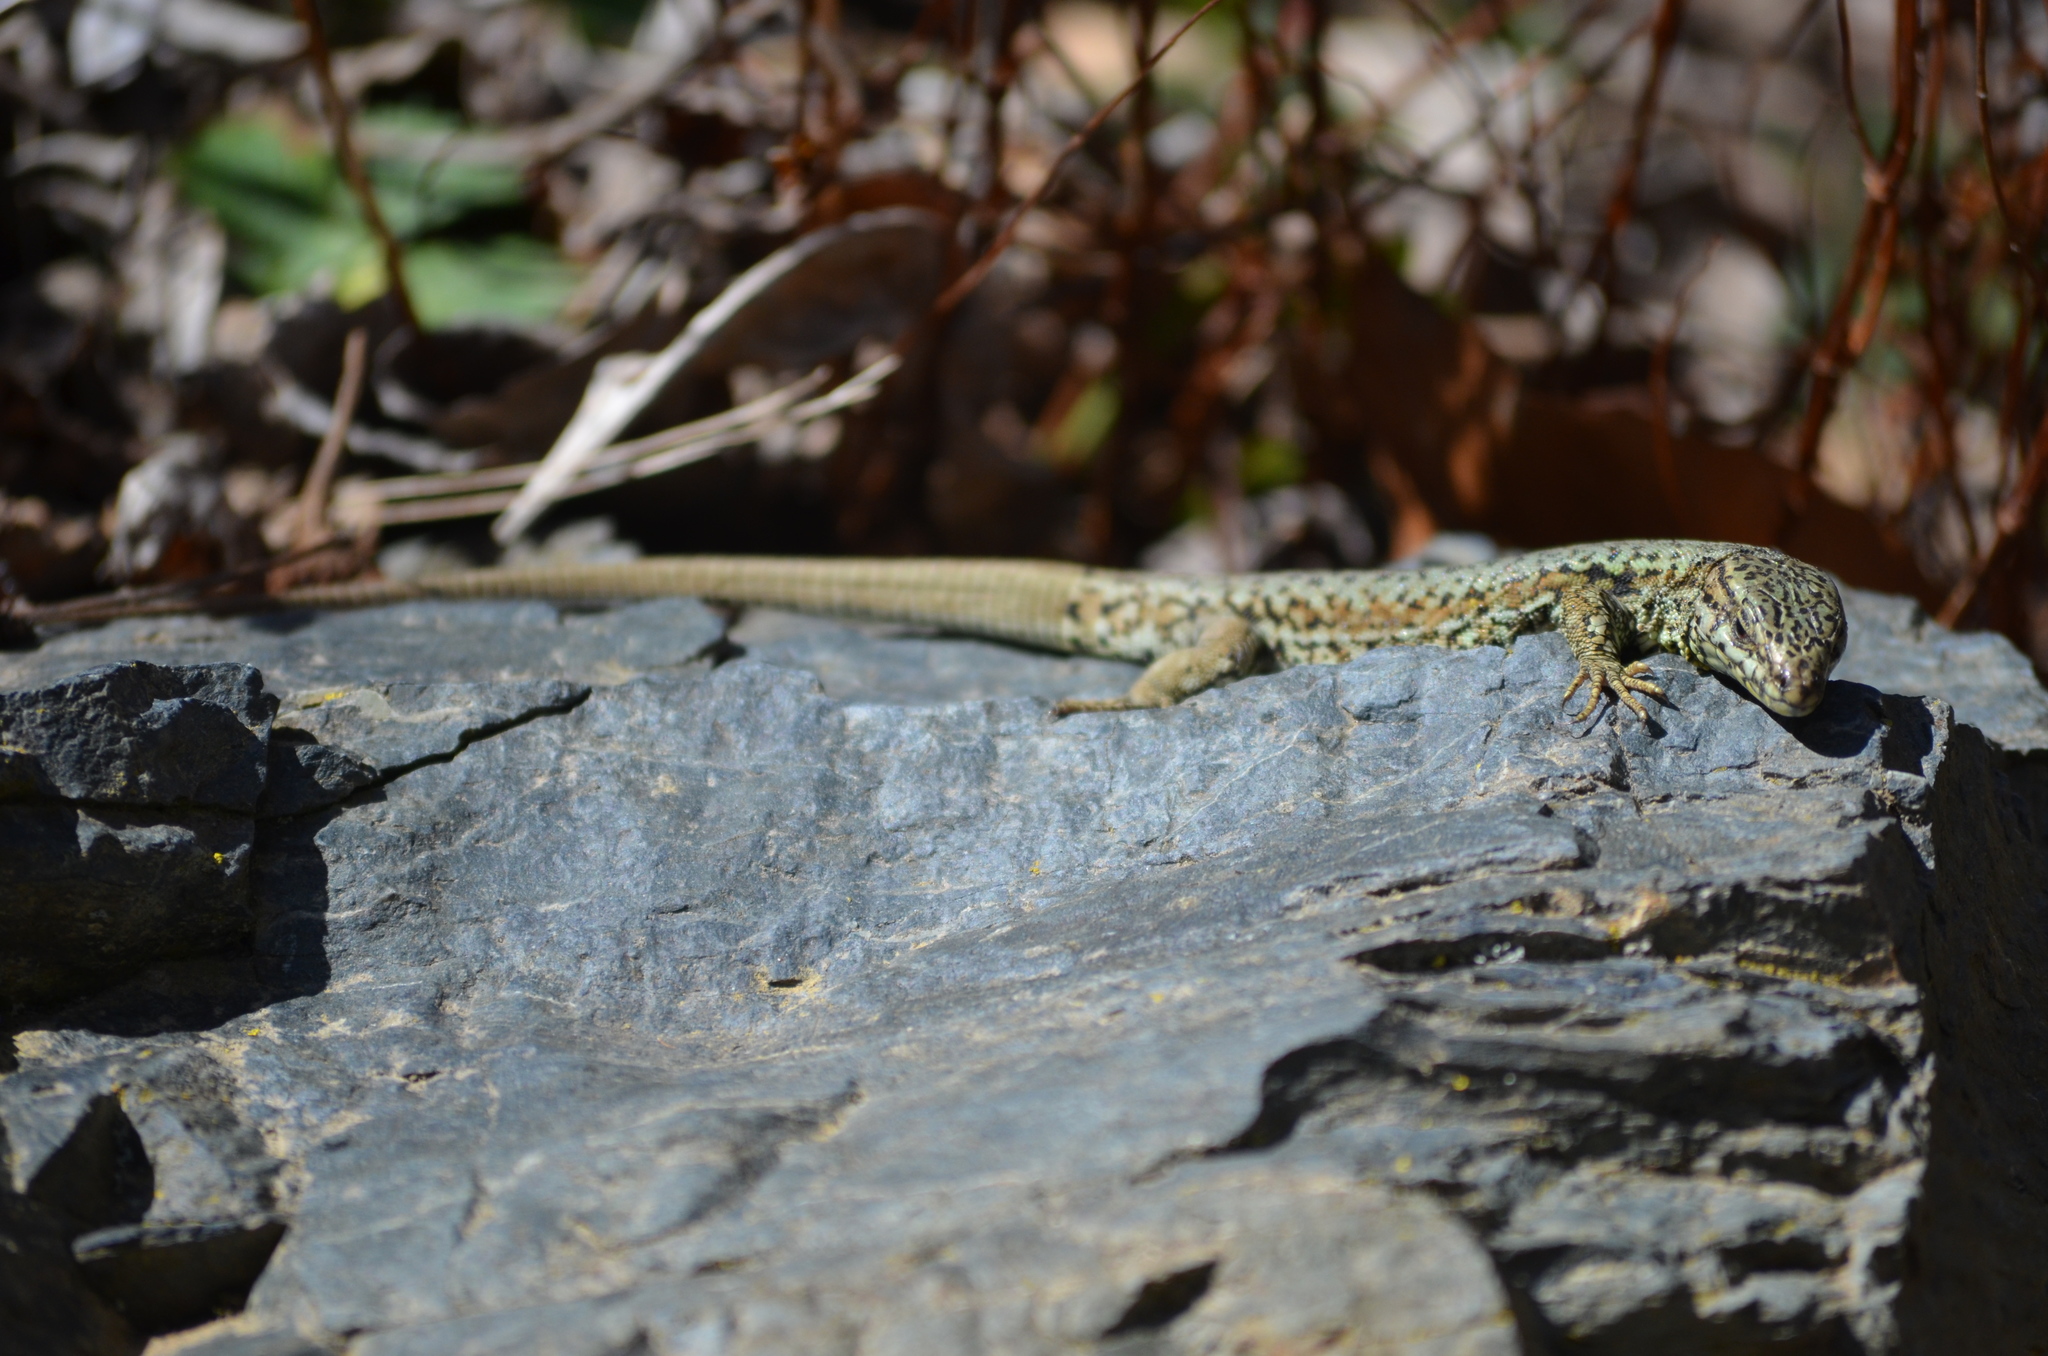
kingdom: Animalia
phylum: Chordata
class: Squamata
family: Lacertidae
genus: Podarcis
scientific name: Podarcis muralis
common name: Common wall lizard
